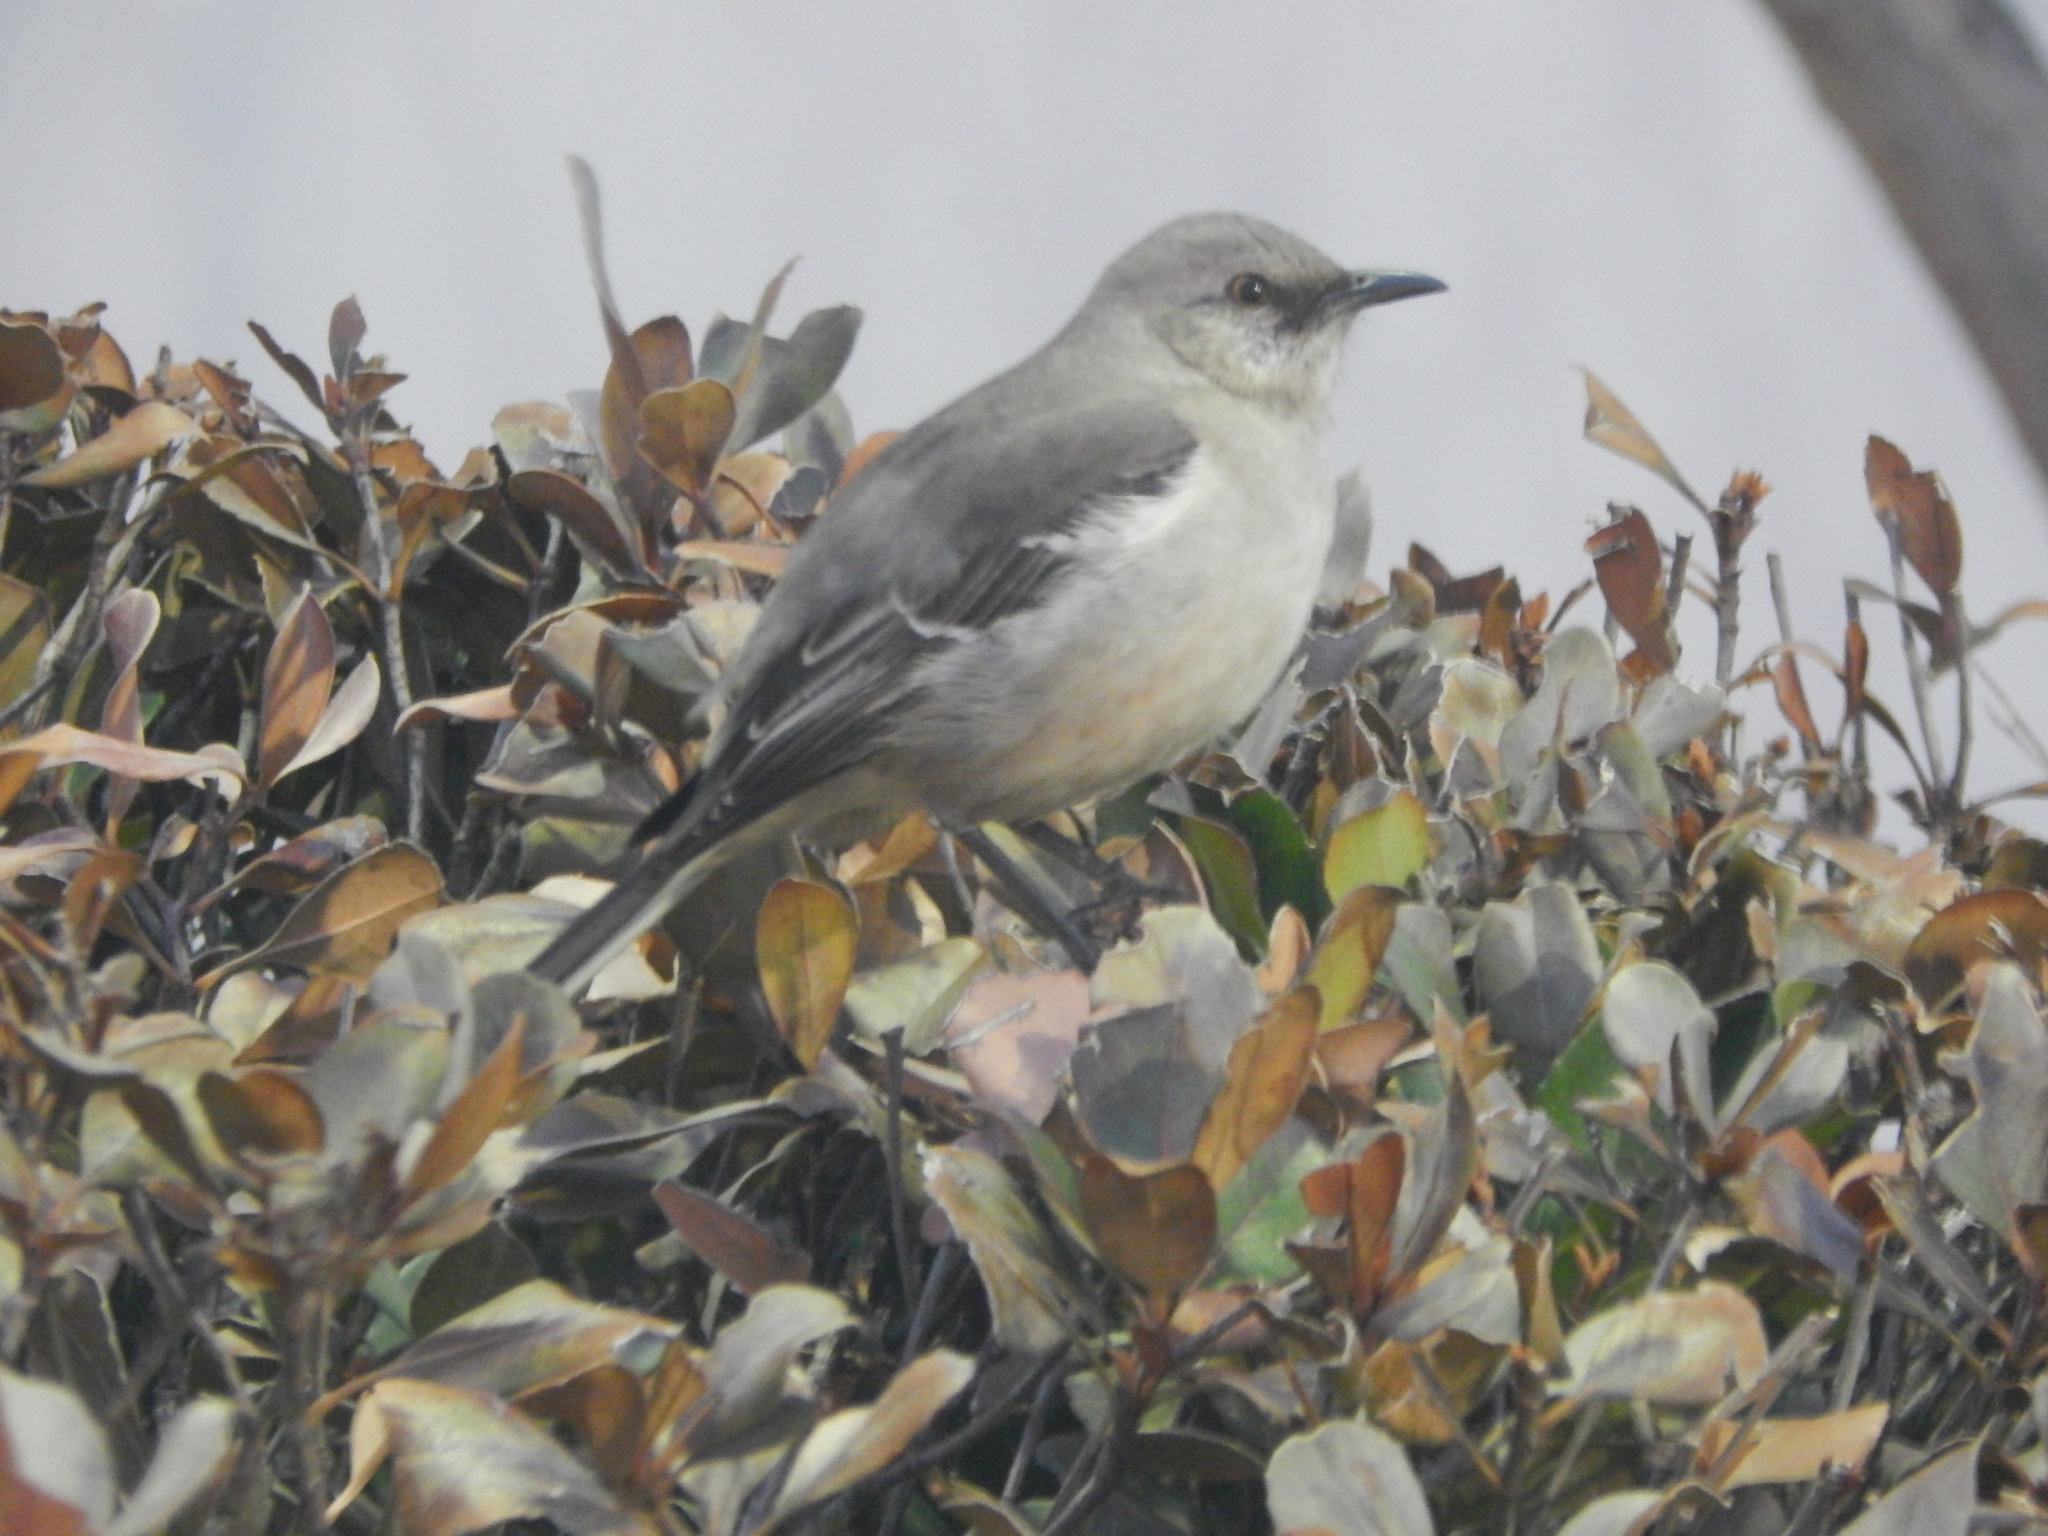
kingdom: Animalia
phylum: Chordata
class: Aves
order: Passeriformes
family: Mimidae
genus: Mimus
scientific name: Mimus polyglottos
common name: Northern mockingbird
